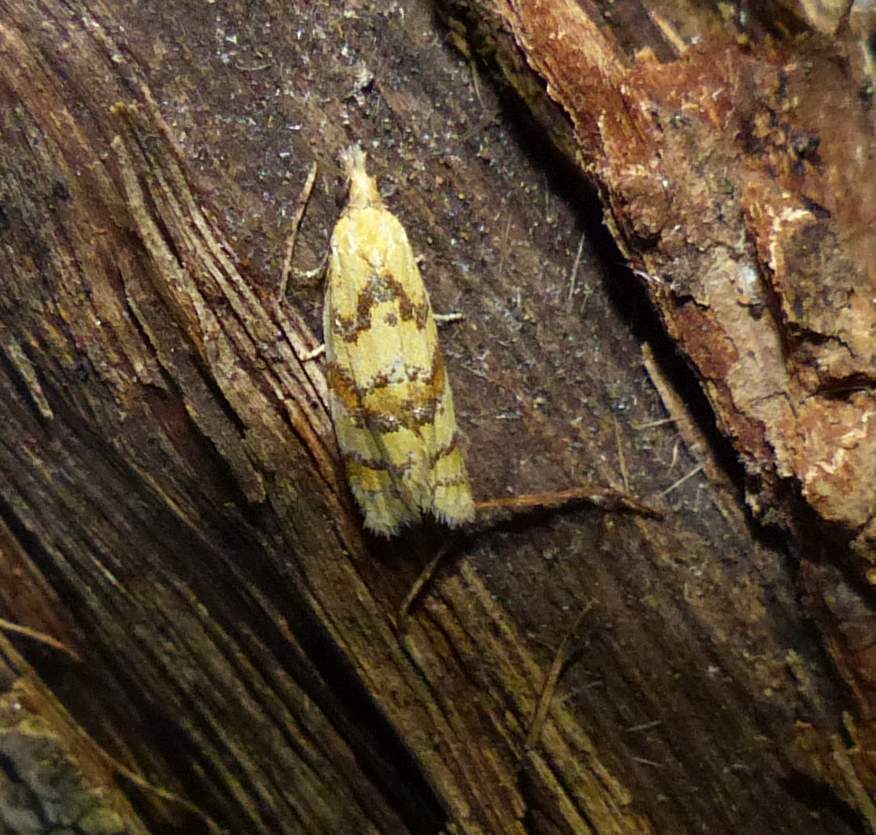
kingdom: Animalia
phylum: Arthropoda
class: Insecta
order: Lepidoptera
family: Tortricidae
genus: Phtheochroa
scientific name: Phtheochroa vitellinana
